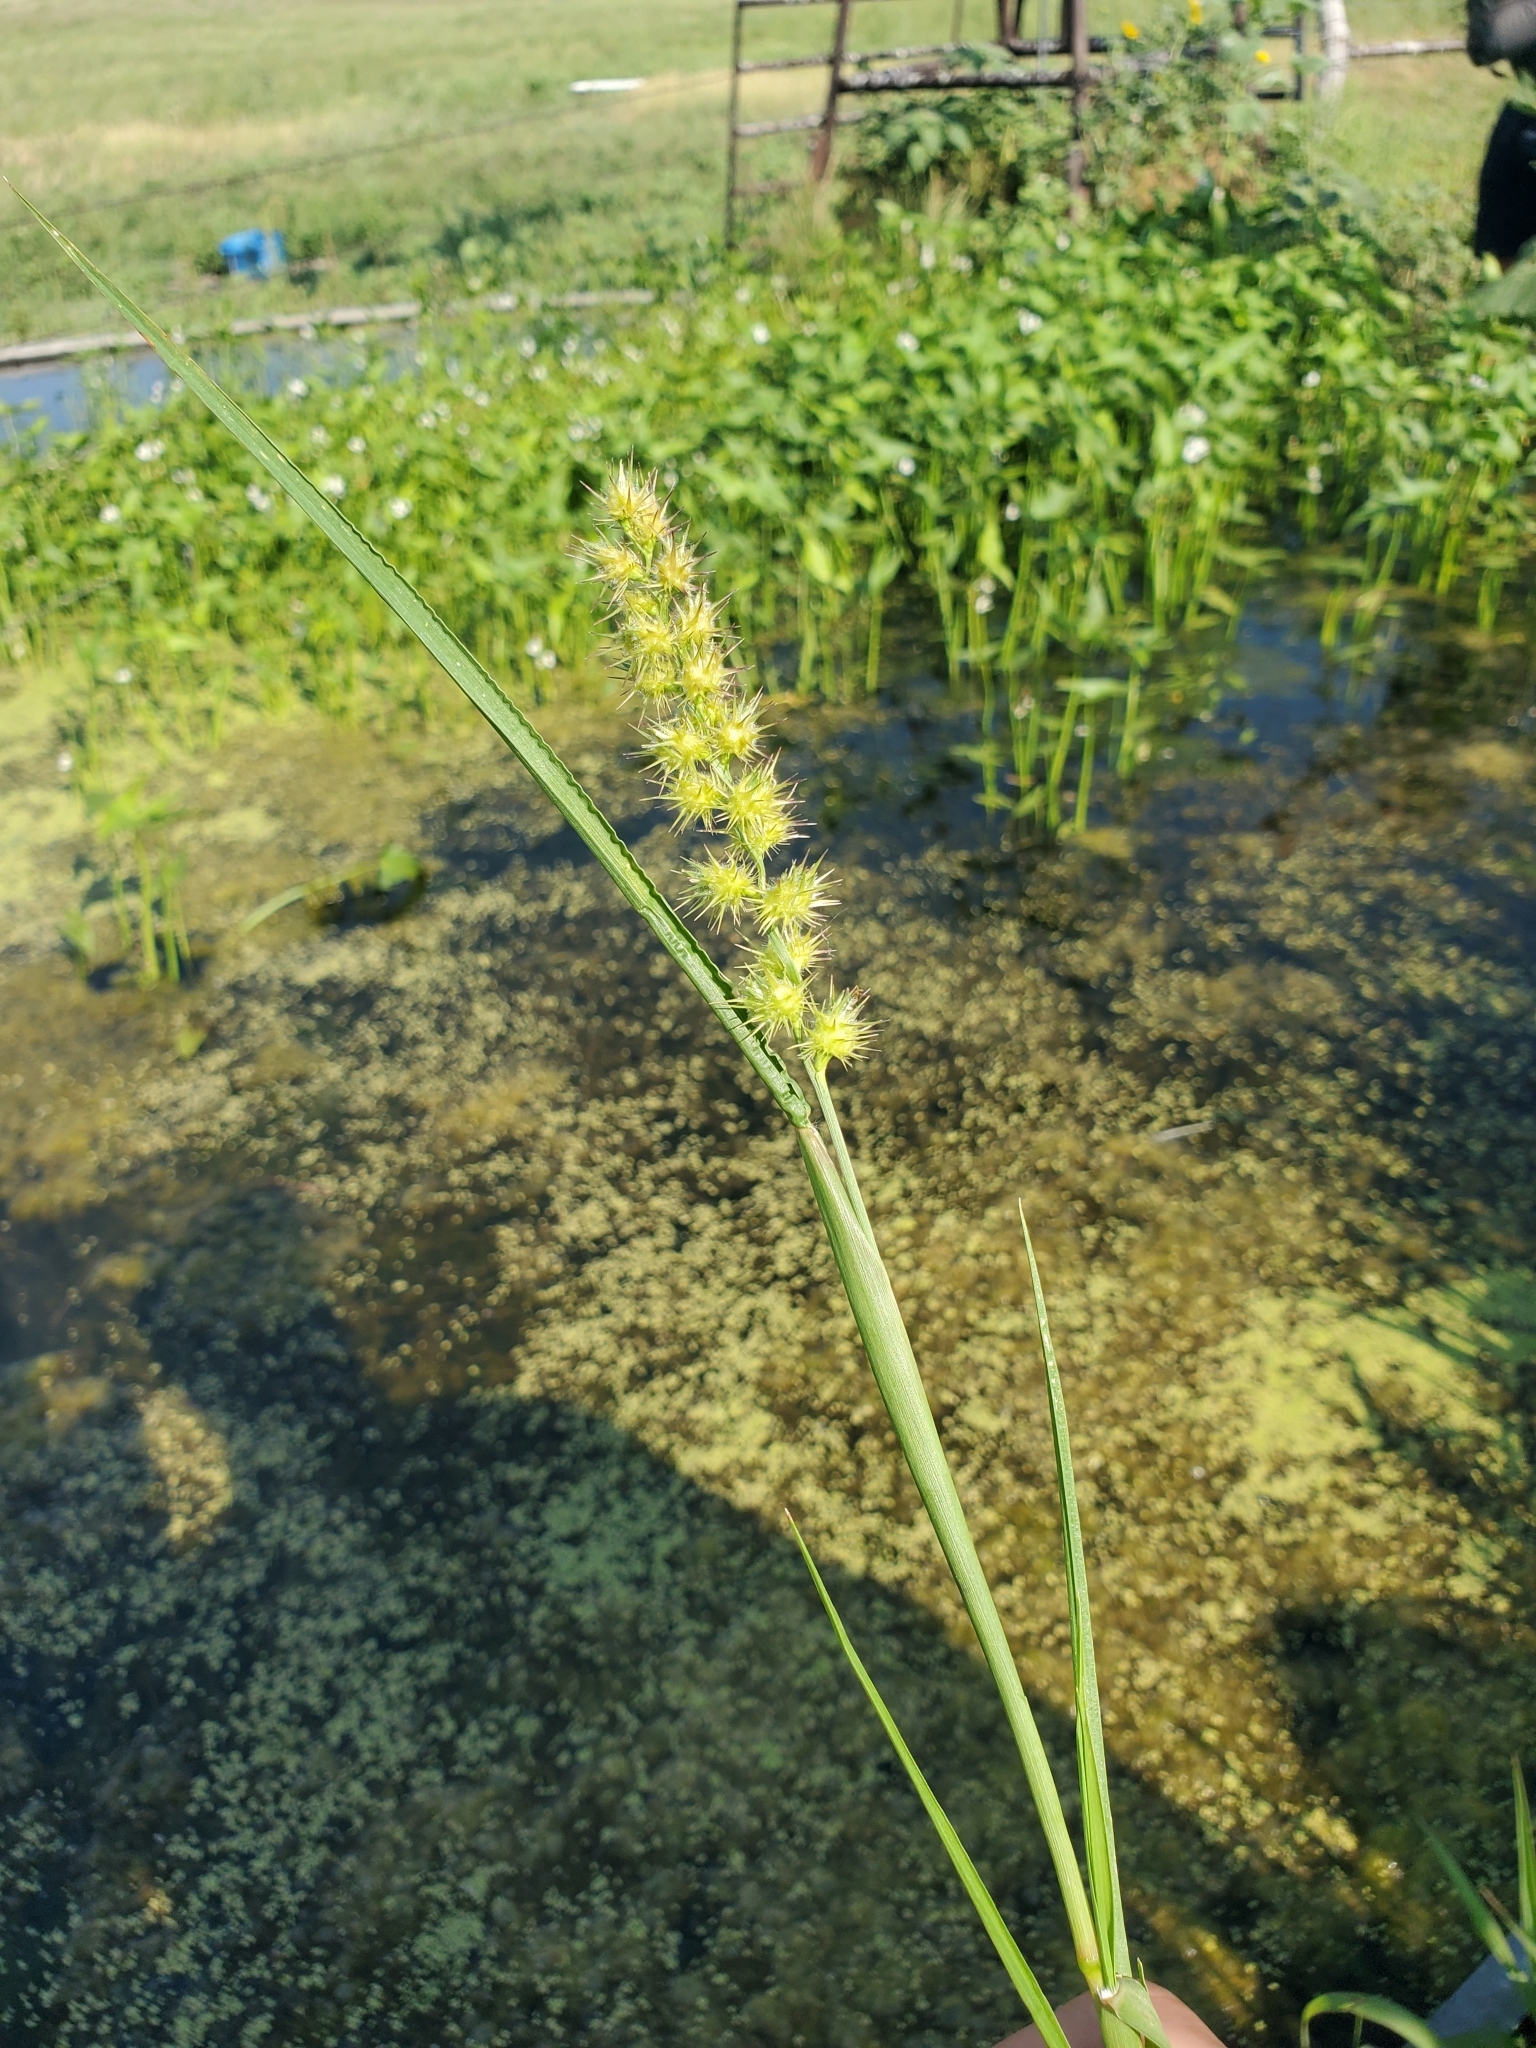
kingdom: Plantae
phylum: Tracheophyta
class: Liliopsida
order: Poales
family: Poaceae
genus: Cenchrus
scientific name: Cenchrus longispinus
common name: Mat sandbur
